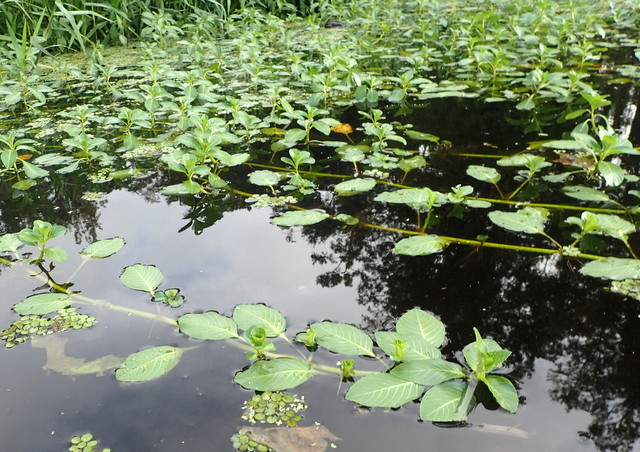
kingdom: Plantae
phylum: Tracheophyta
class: Magnoliopsida
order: Myrtales
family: Onagraceae
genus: Ludwigia
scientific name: Ludwigia peploides
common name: Floating primrose-willow
